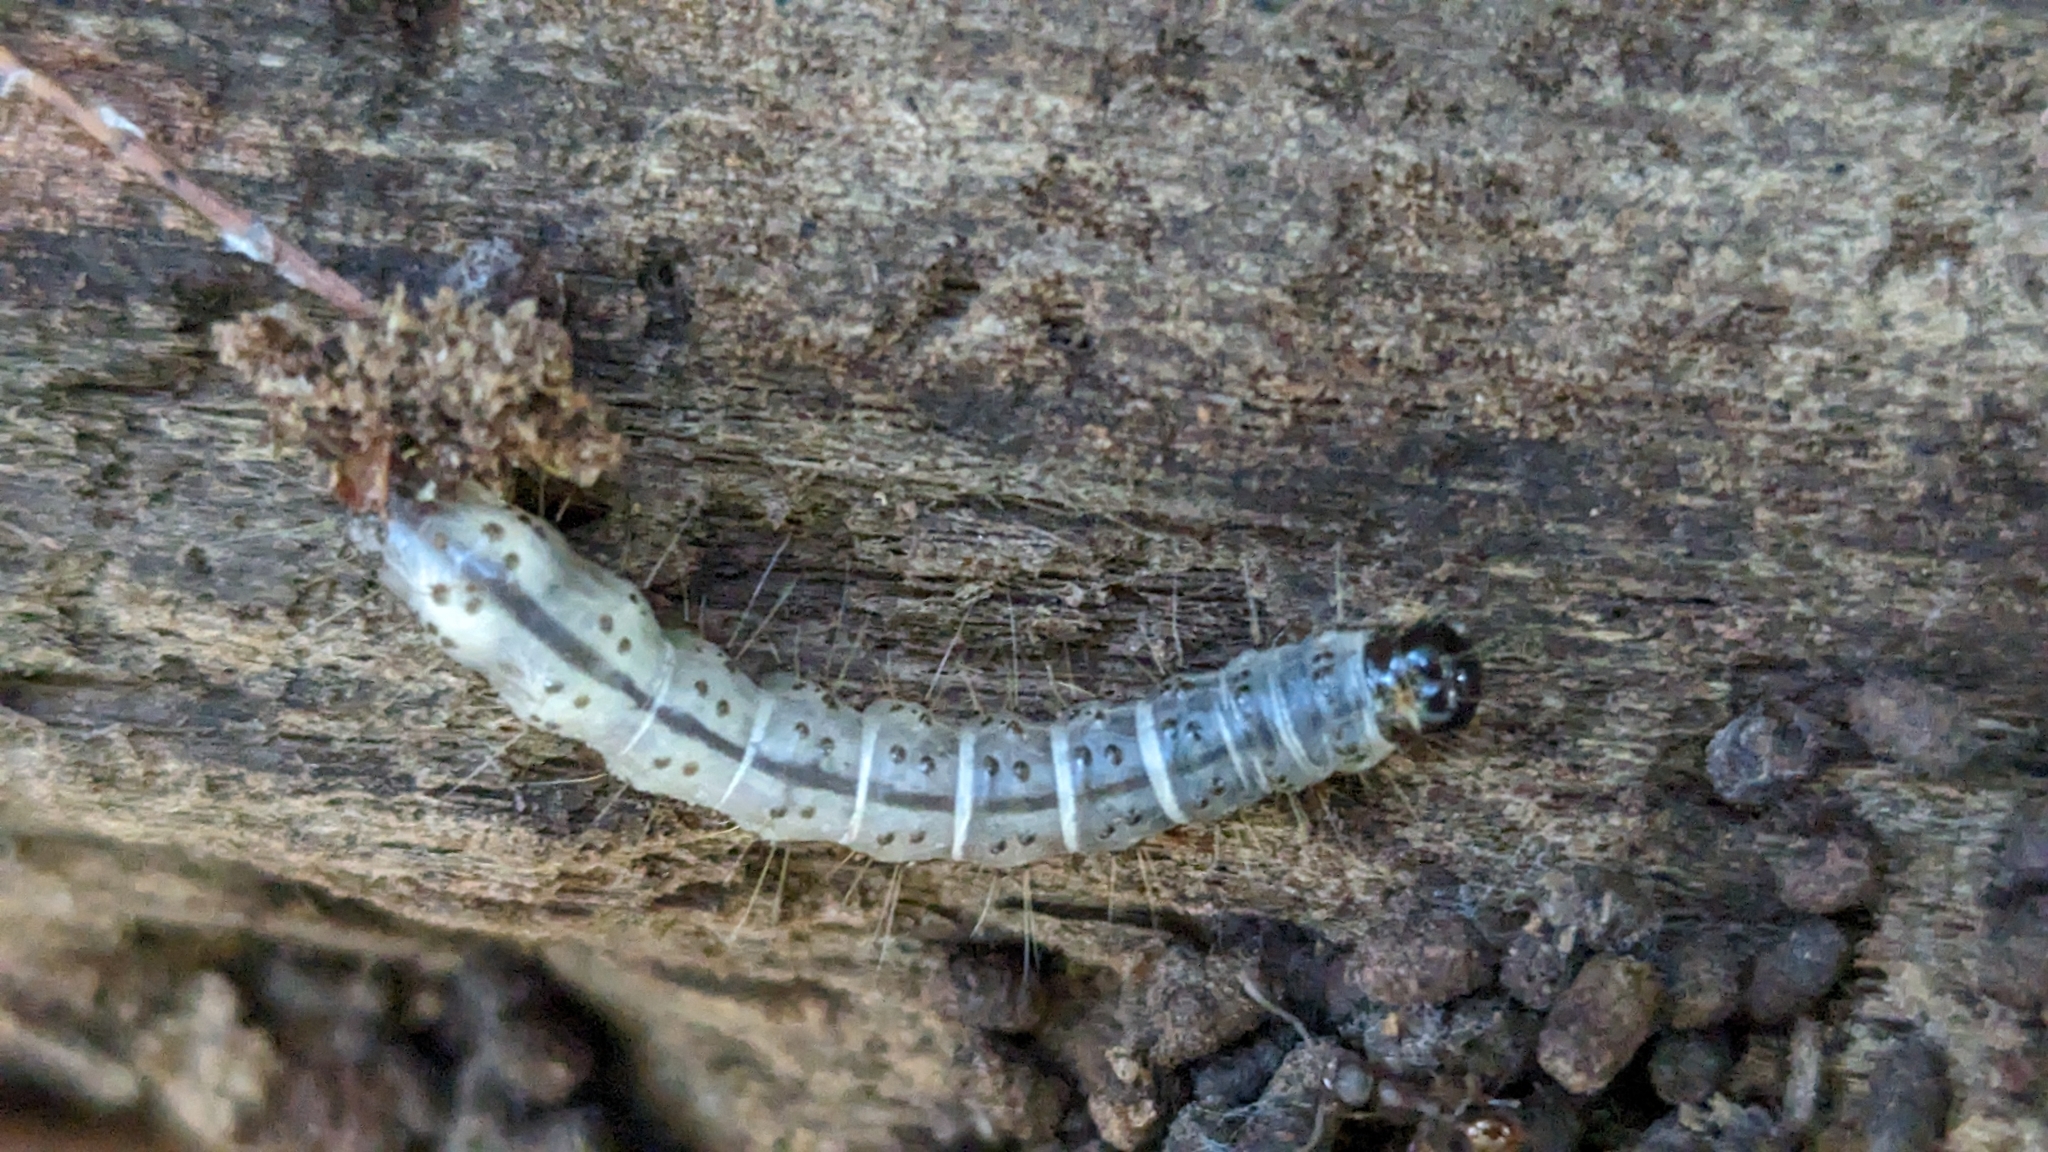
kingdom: Animalia
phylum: Arthropoda
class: Insecta
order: Lepidoptera
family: Erebidae
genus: Scolecocampa
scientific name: Scolecocampa liburna
